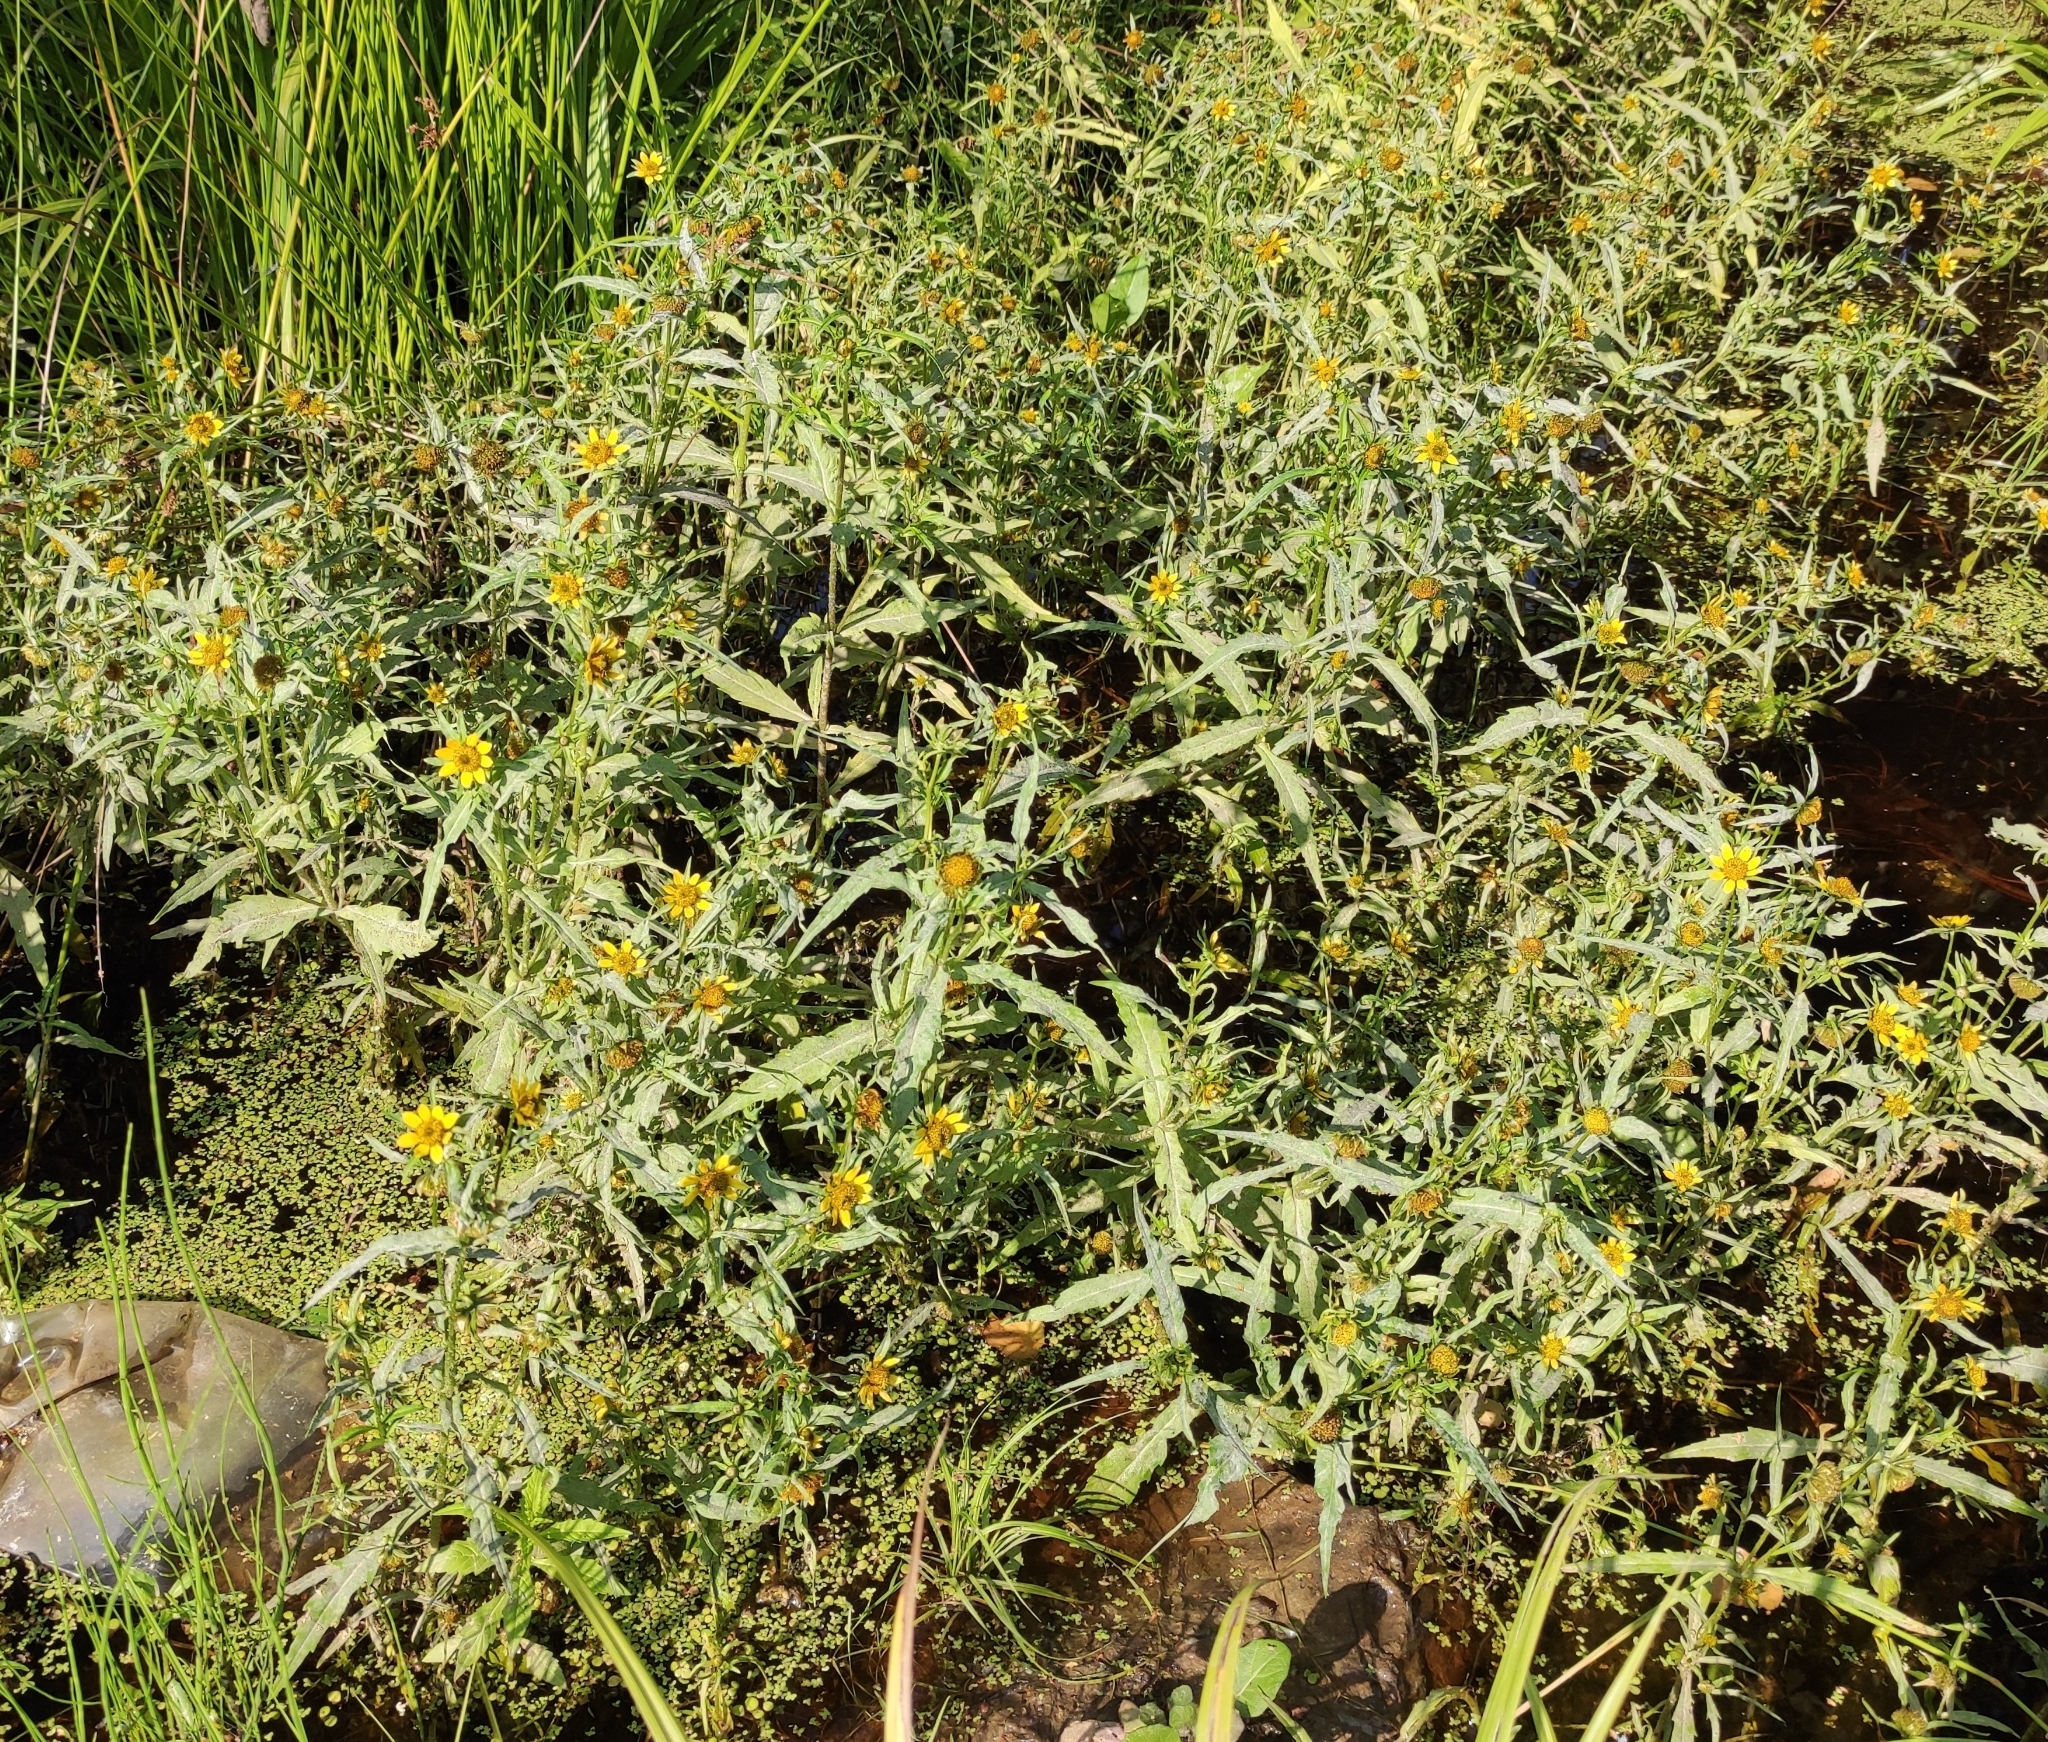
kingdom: Plantae
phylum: Tracheophyta
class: Magnoliopsida
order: Asterales
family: Asteraceae
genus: Bidens
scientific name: Bidens cernua
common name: Nodding bur-marigold
